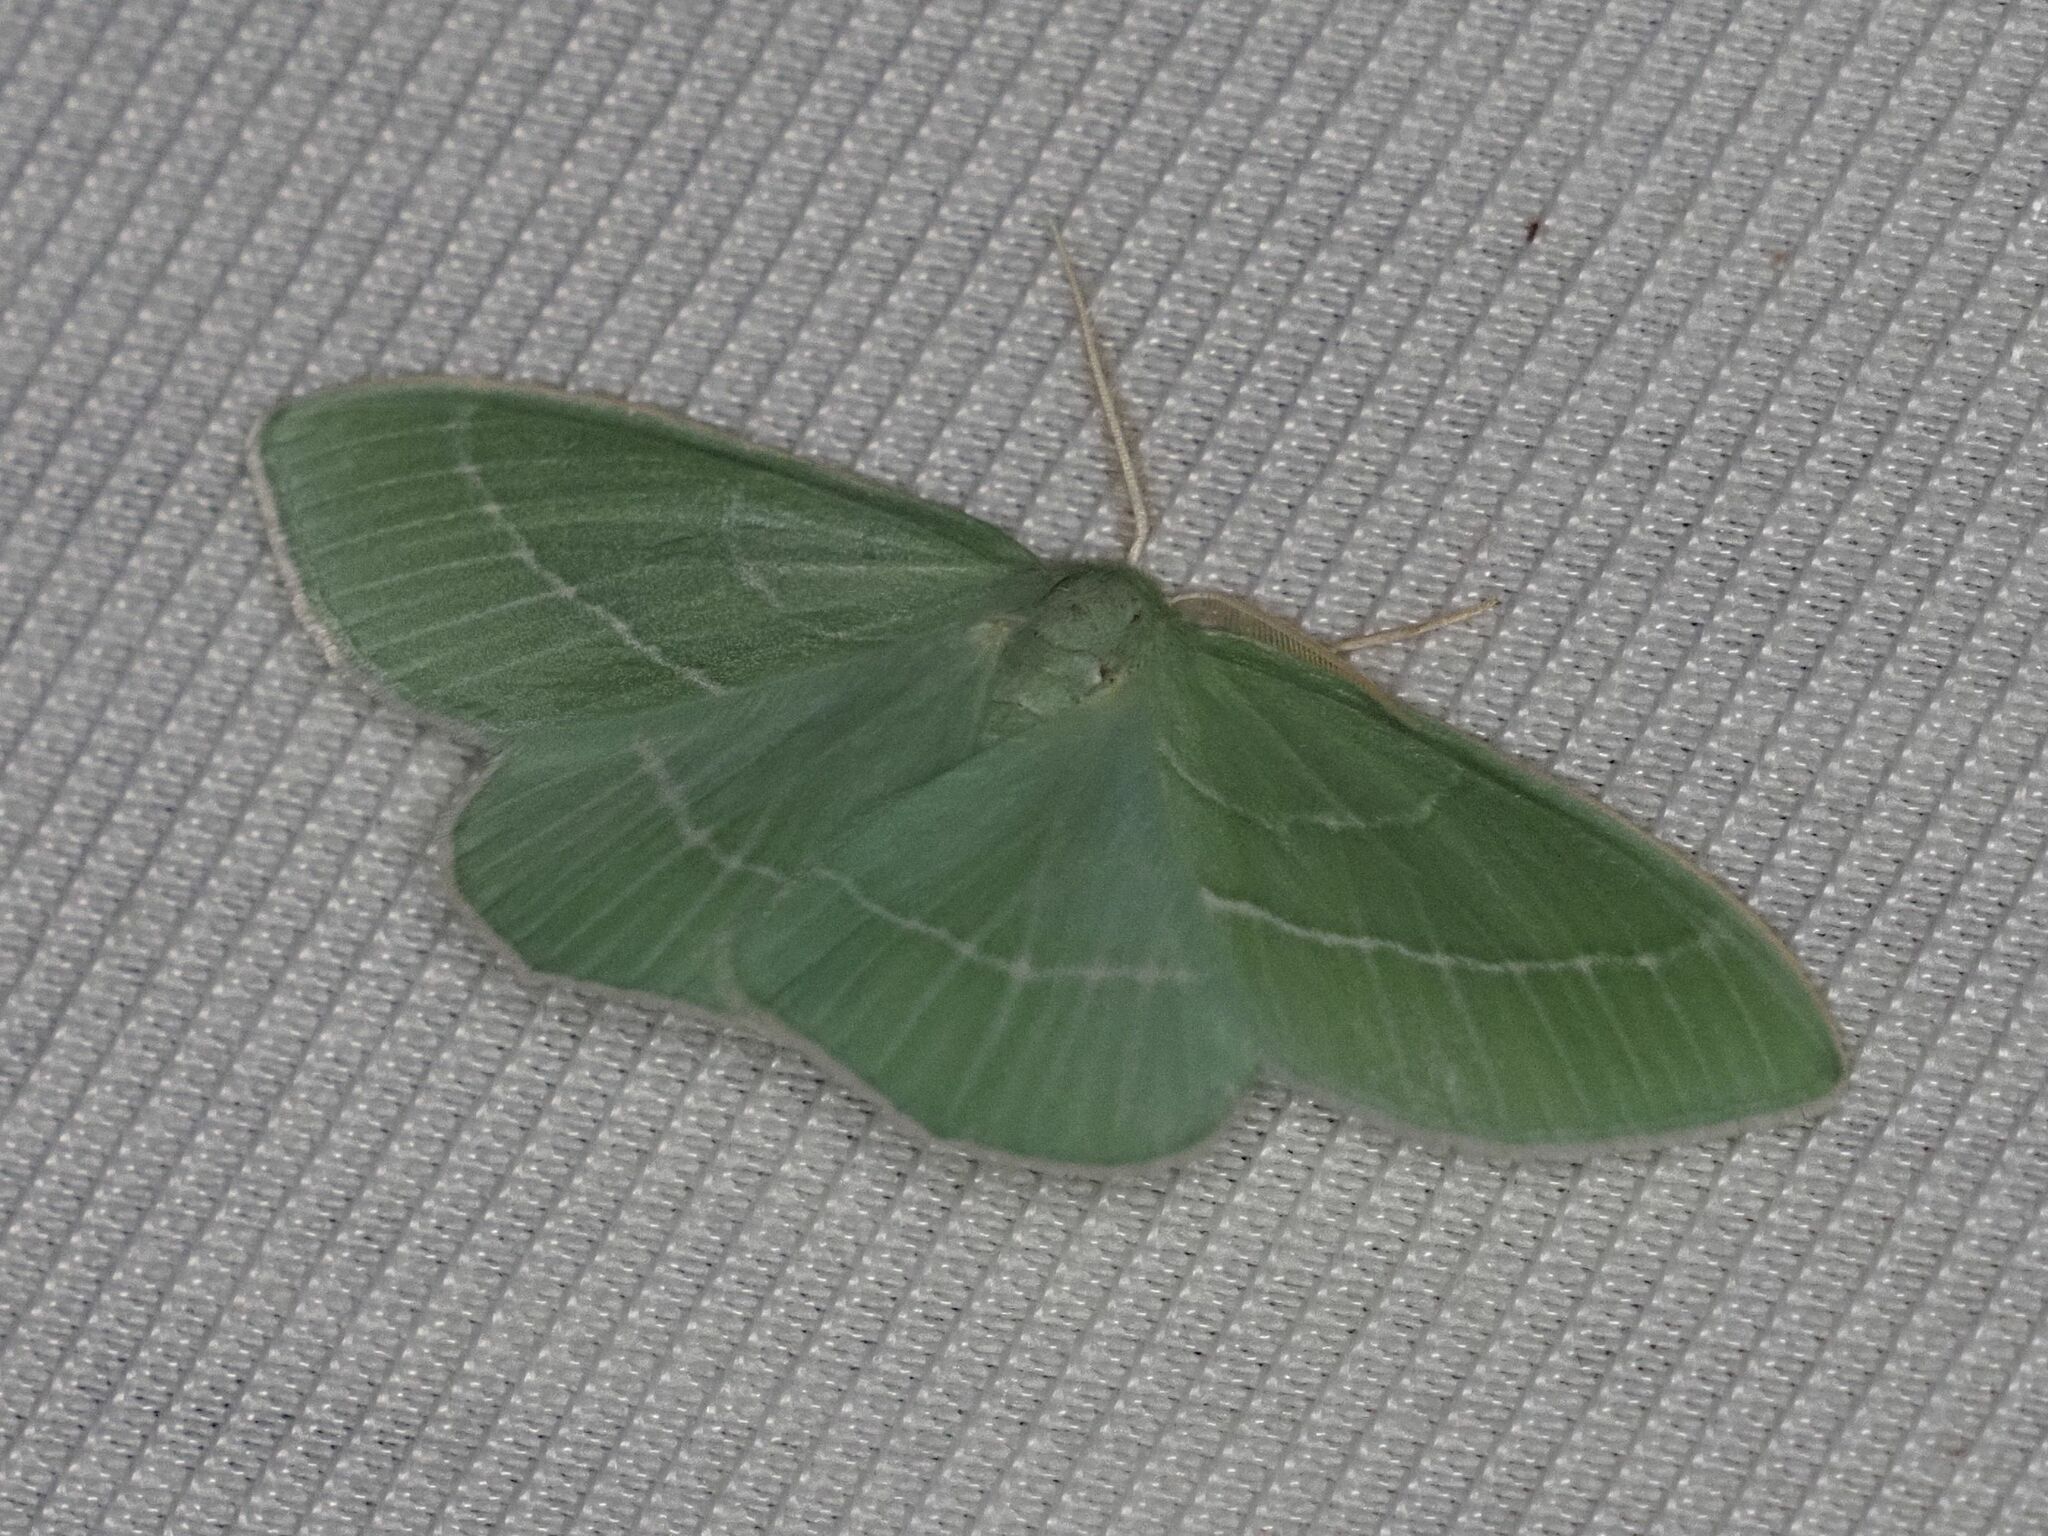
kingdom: Animalia
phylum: Arthropoda
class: Insecta
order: Lepidoptera
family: Geometridae
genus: Hemistola
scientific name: Hemistola chrysoprasaria
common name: Small emerald
